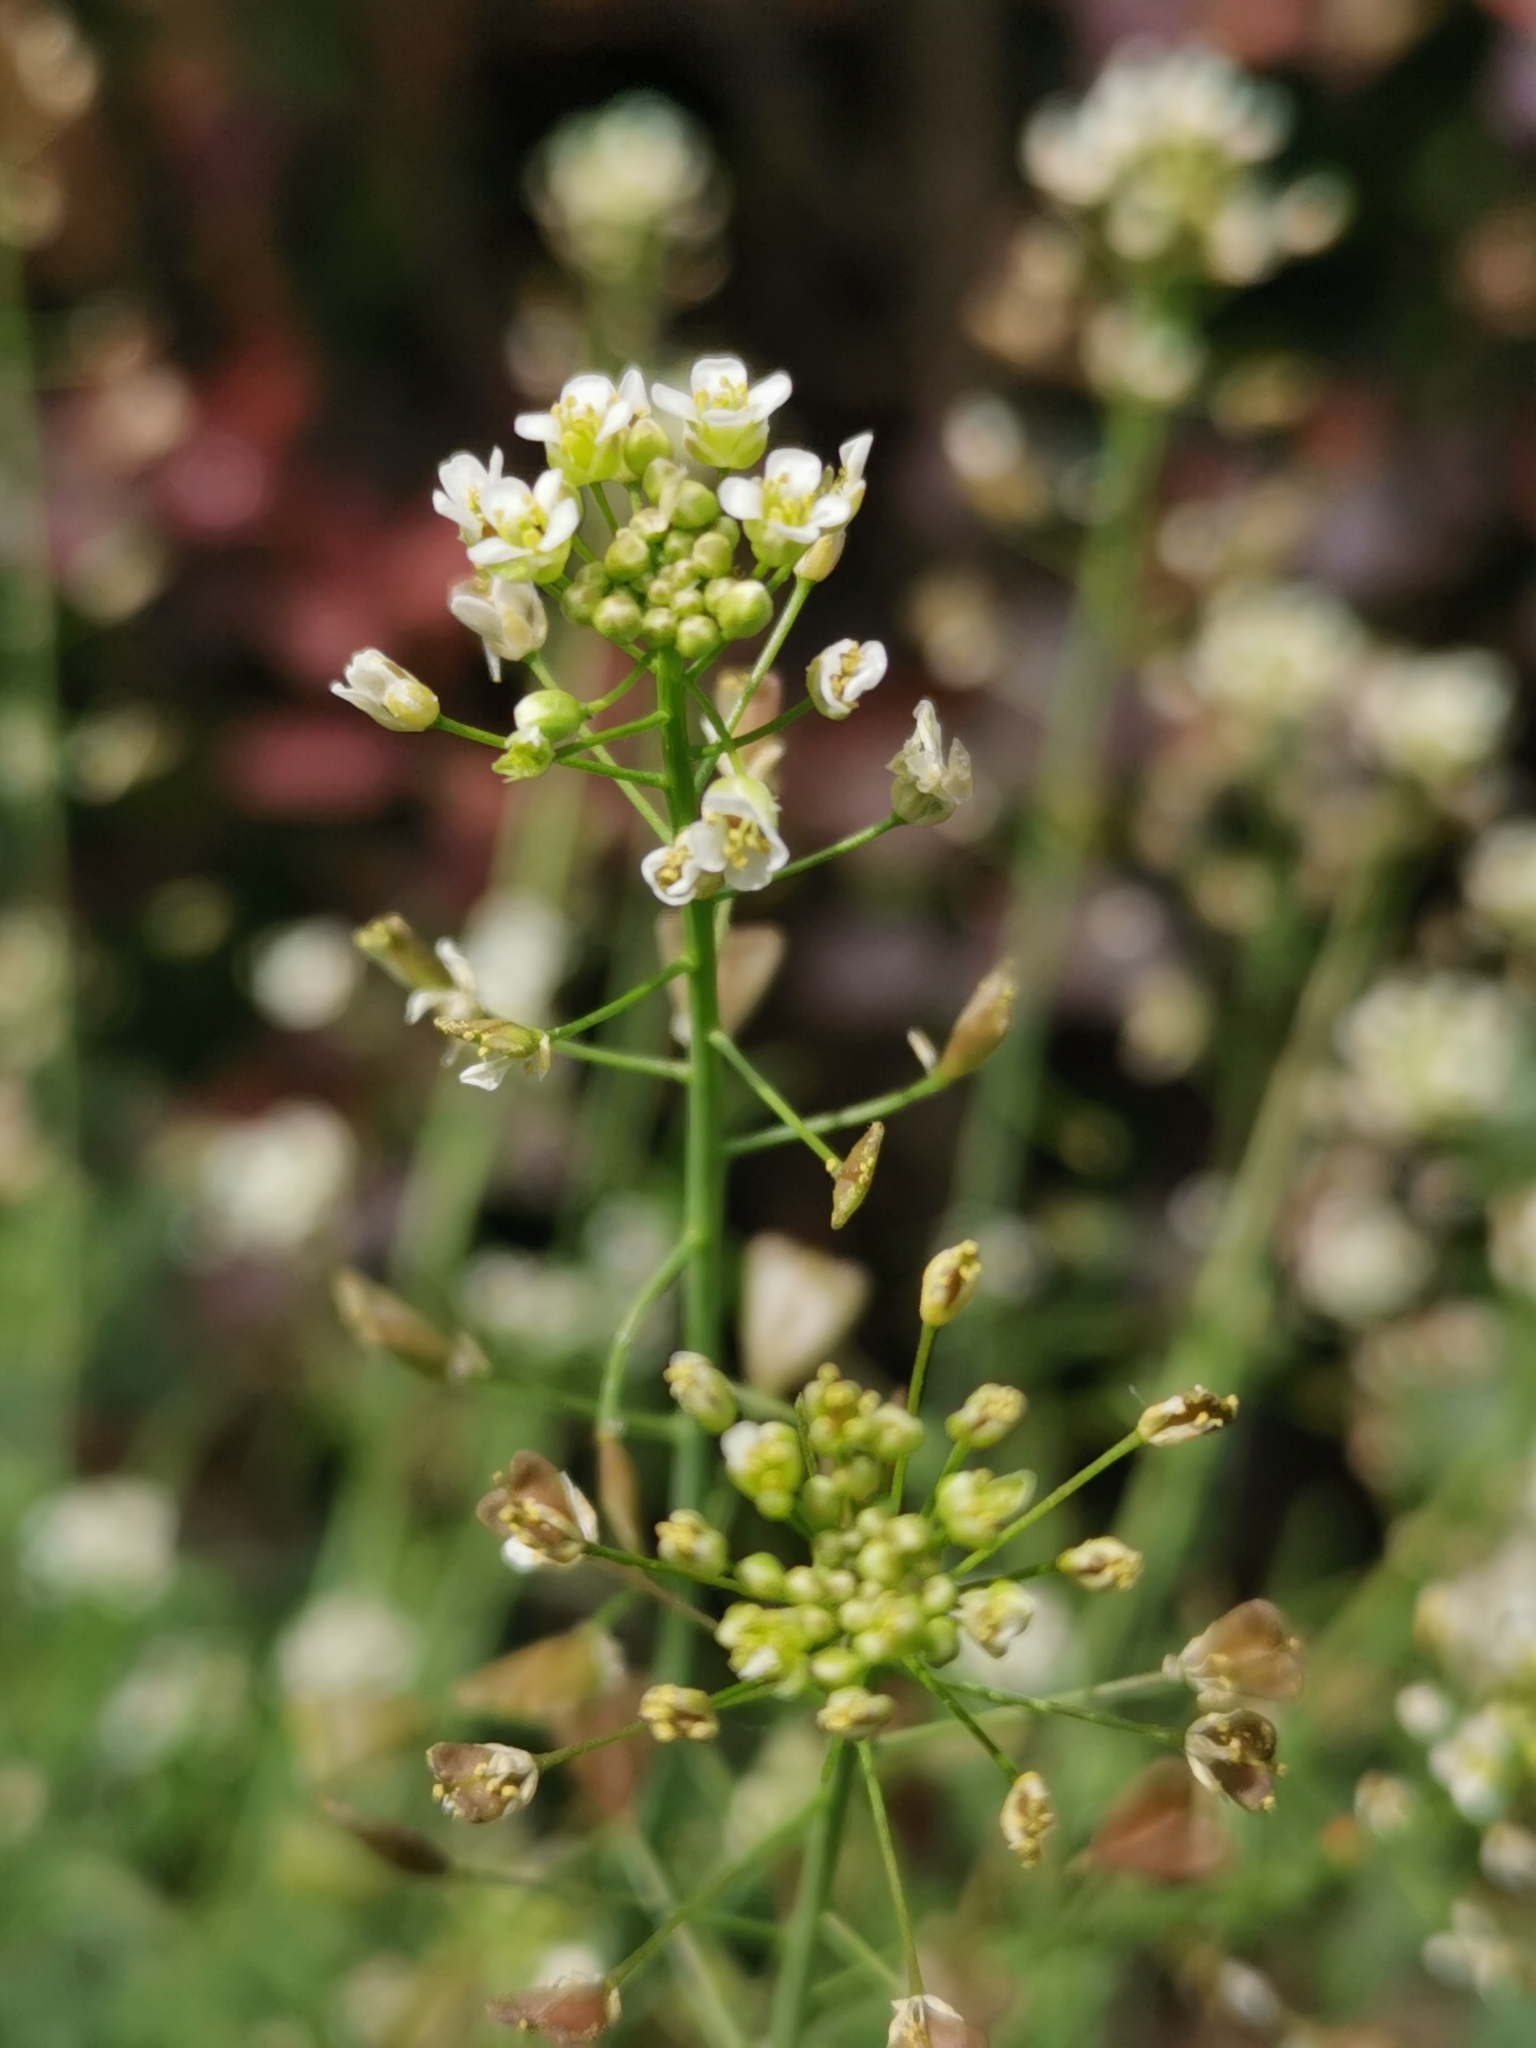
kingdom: Plantae
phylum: Tracheophyta
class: Magnoliopsida
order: Brassicales
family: Brassicaceae
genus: Capsella
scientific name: Capsella bursa-pastoris
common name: Shepherd's purse
